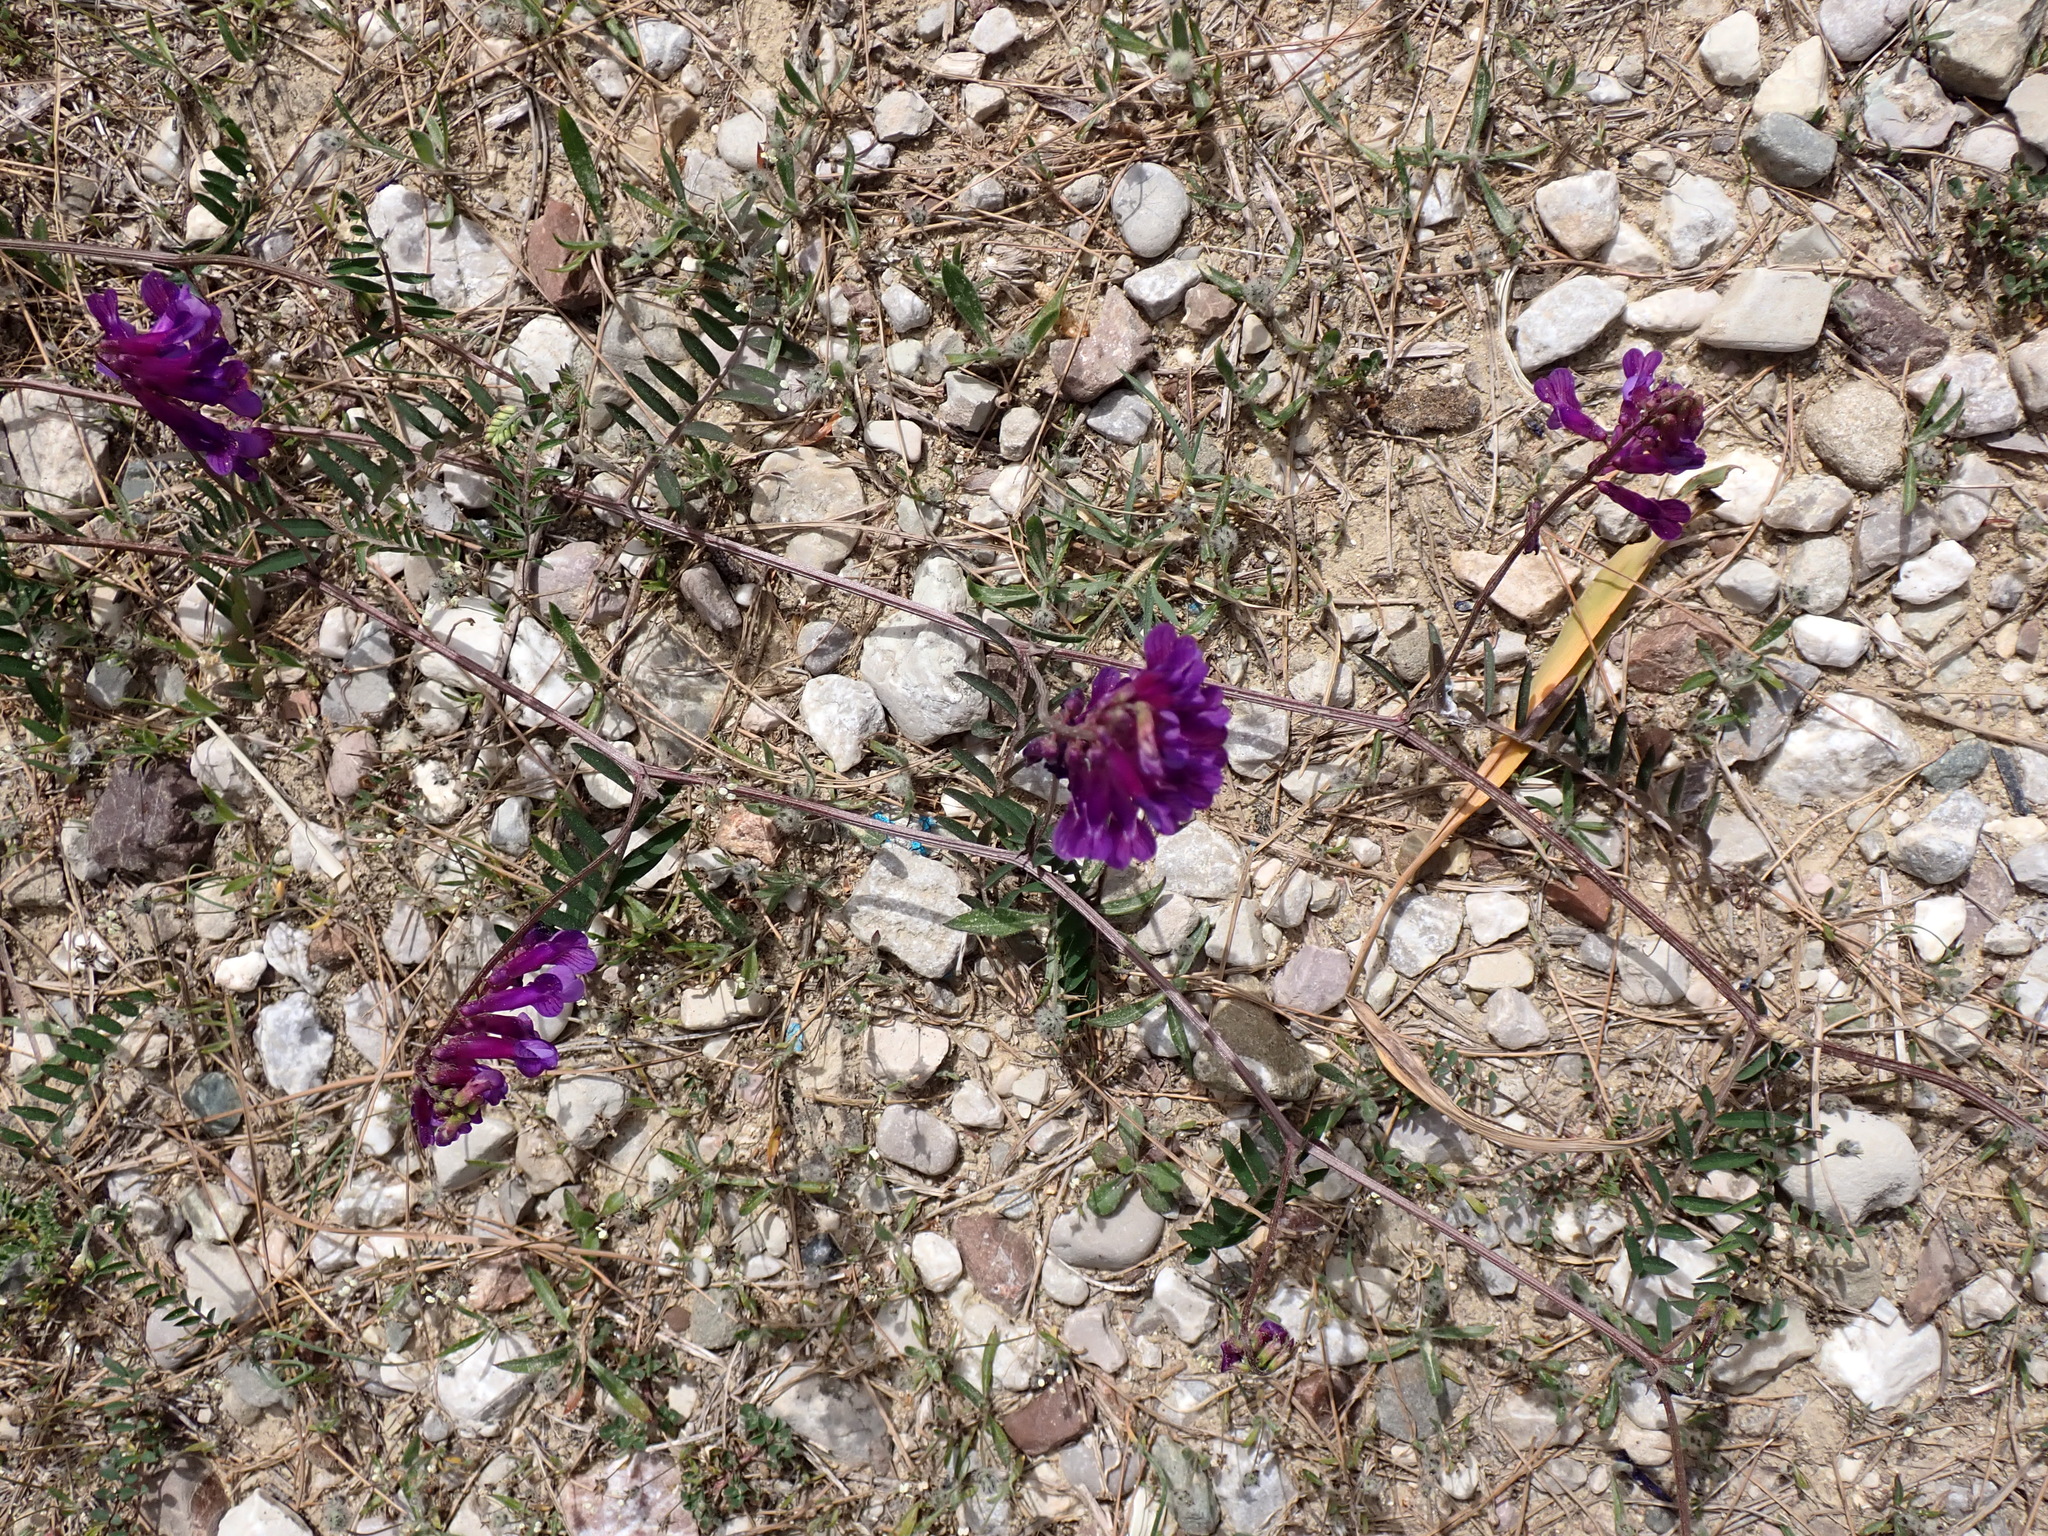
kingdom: Plantae
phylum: Tracheophyta
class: Magnoliopsida
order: Fabales
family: Fabaceae
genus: Vicia
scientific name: Vicia villosa
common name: Fodder vetch
